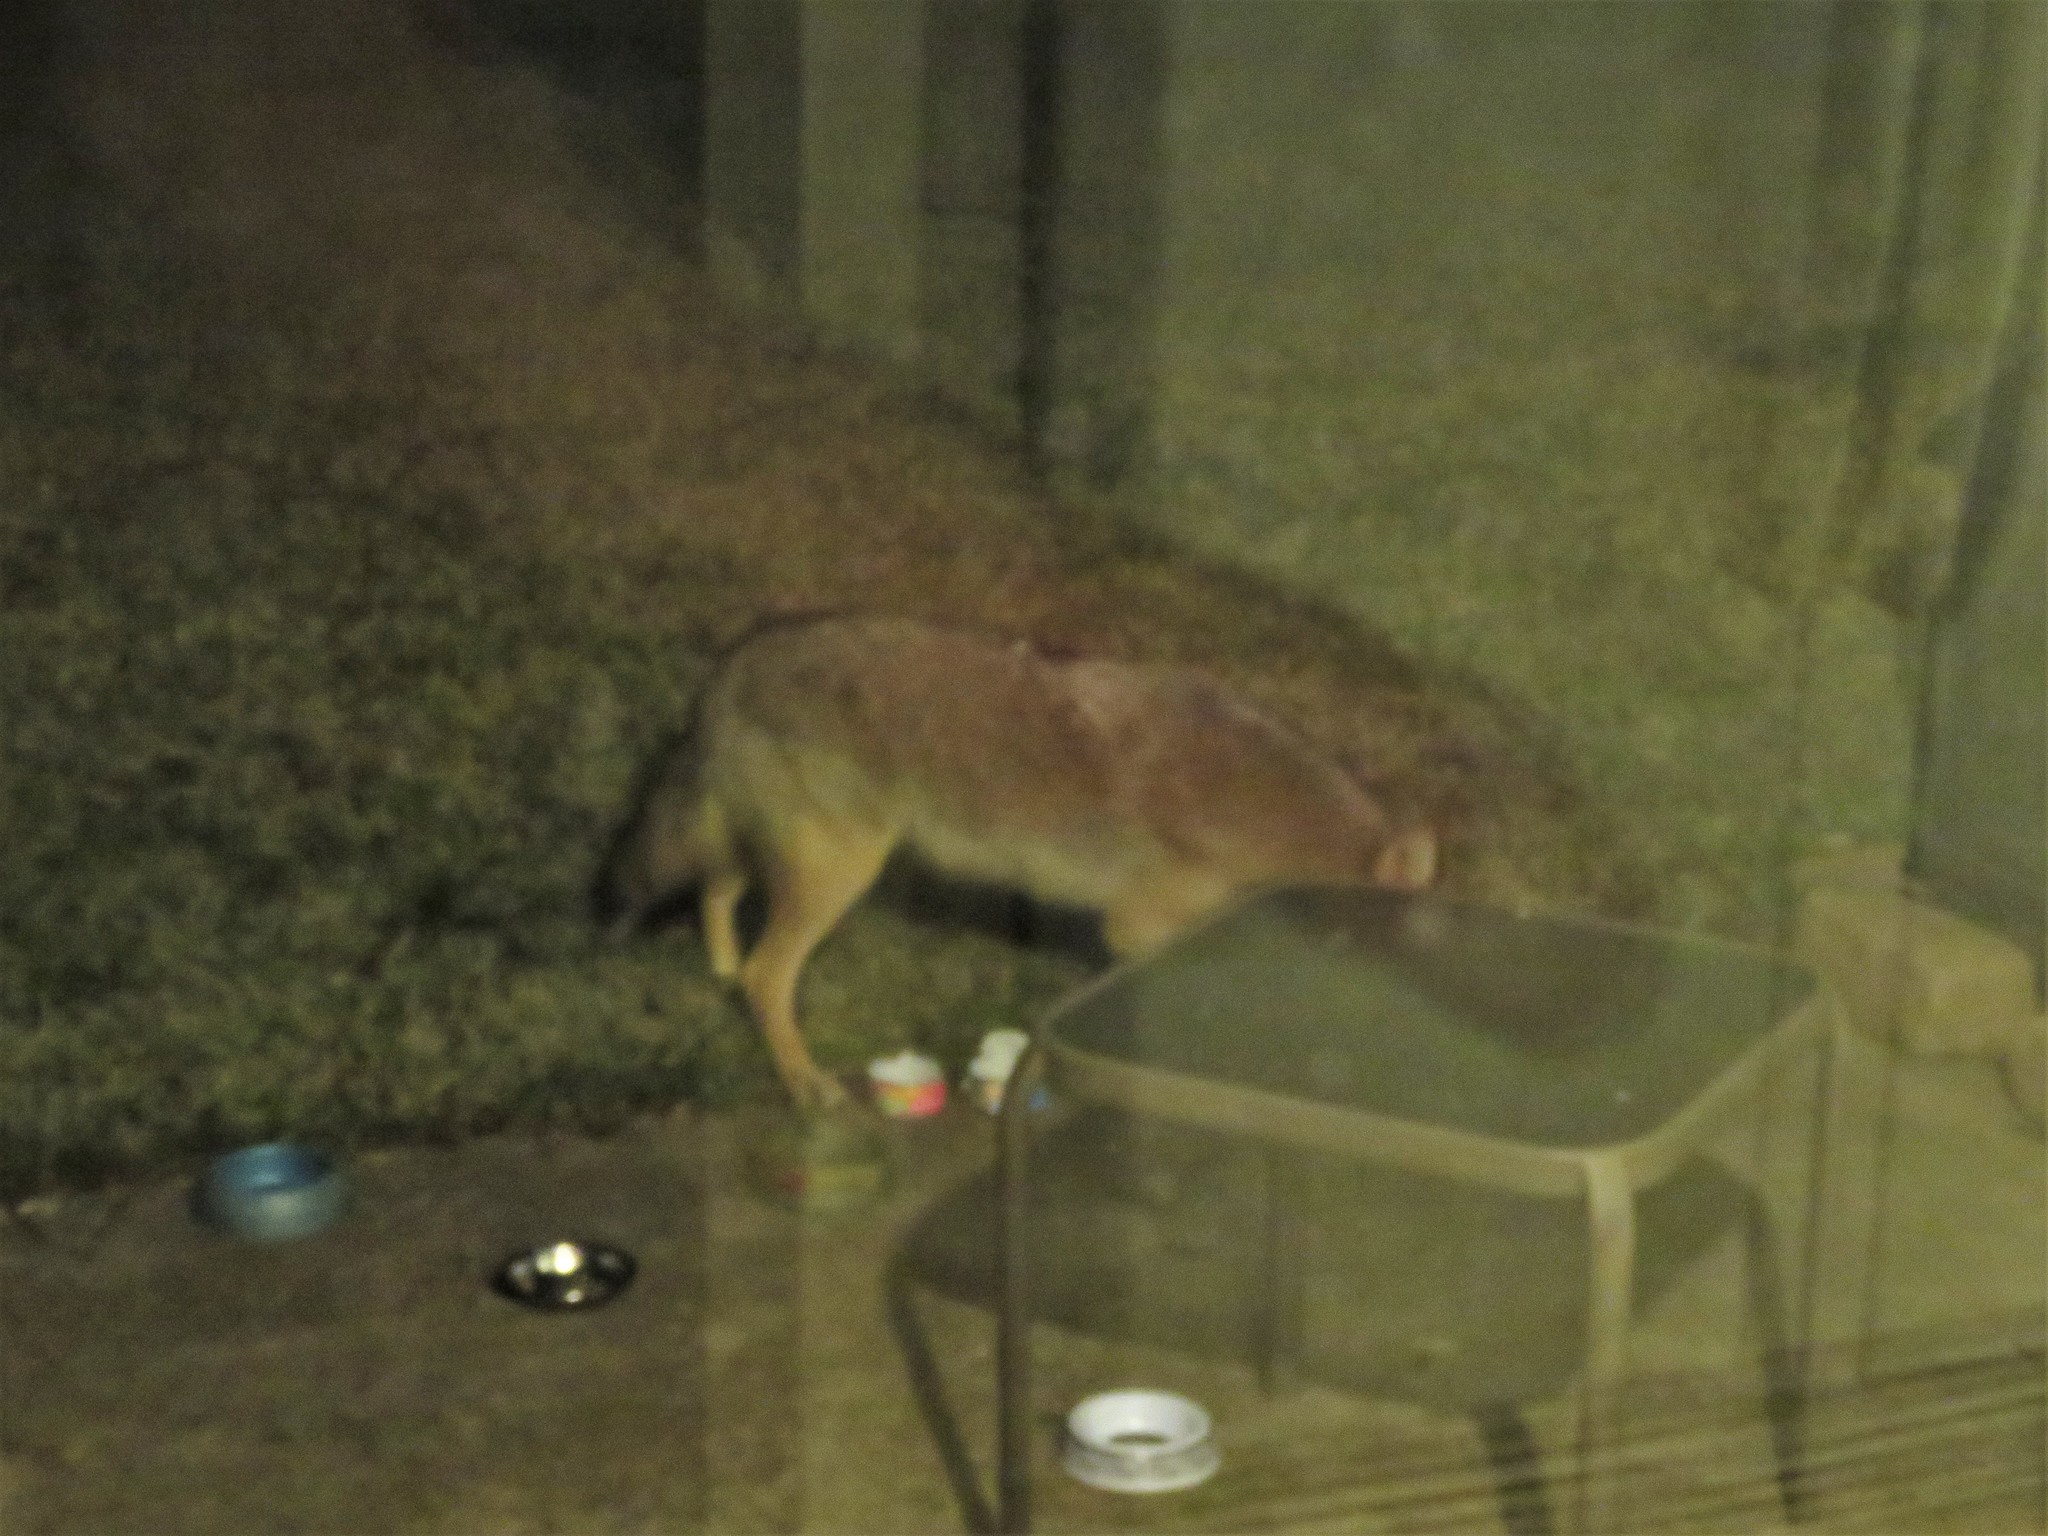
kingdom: Animalia
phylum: Chordata
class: Mammalia
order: Carnivora
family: Canidae
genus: Canis
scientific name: Canis latrans
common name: Coyote
